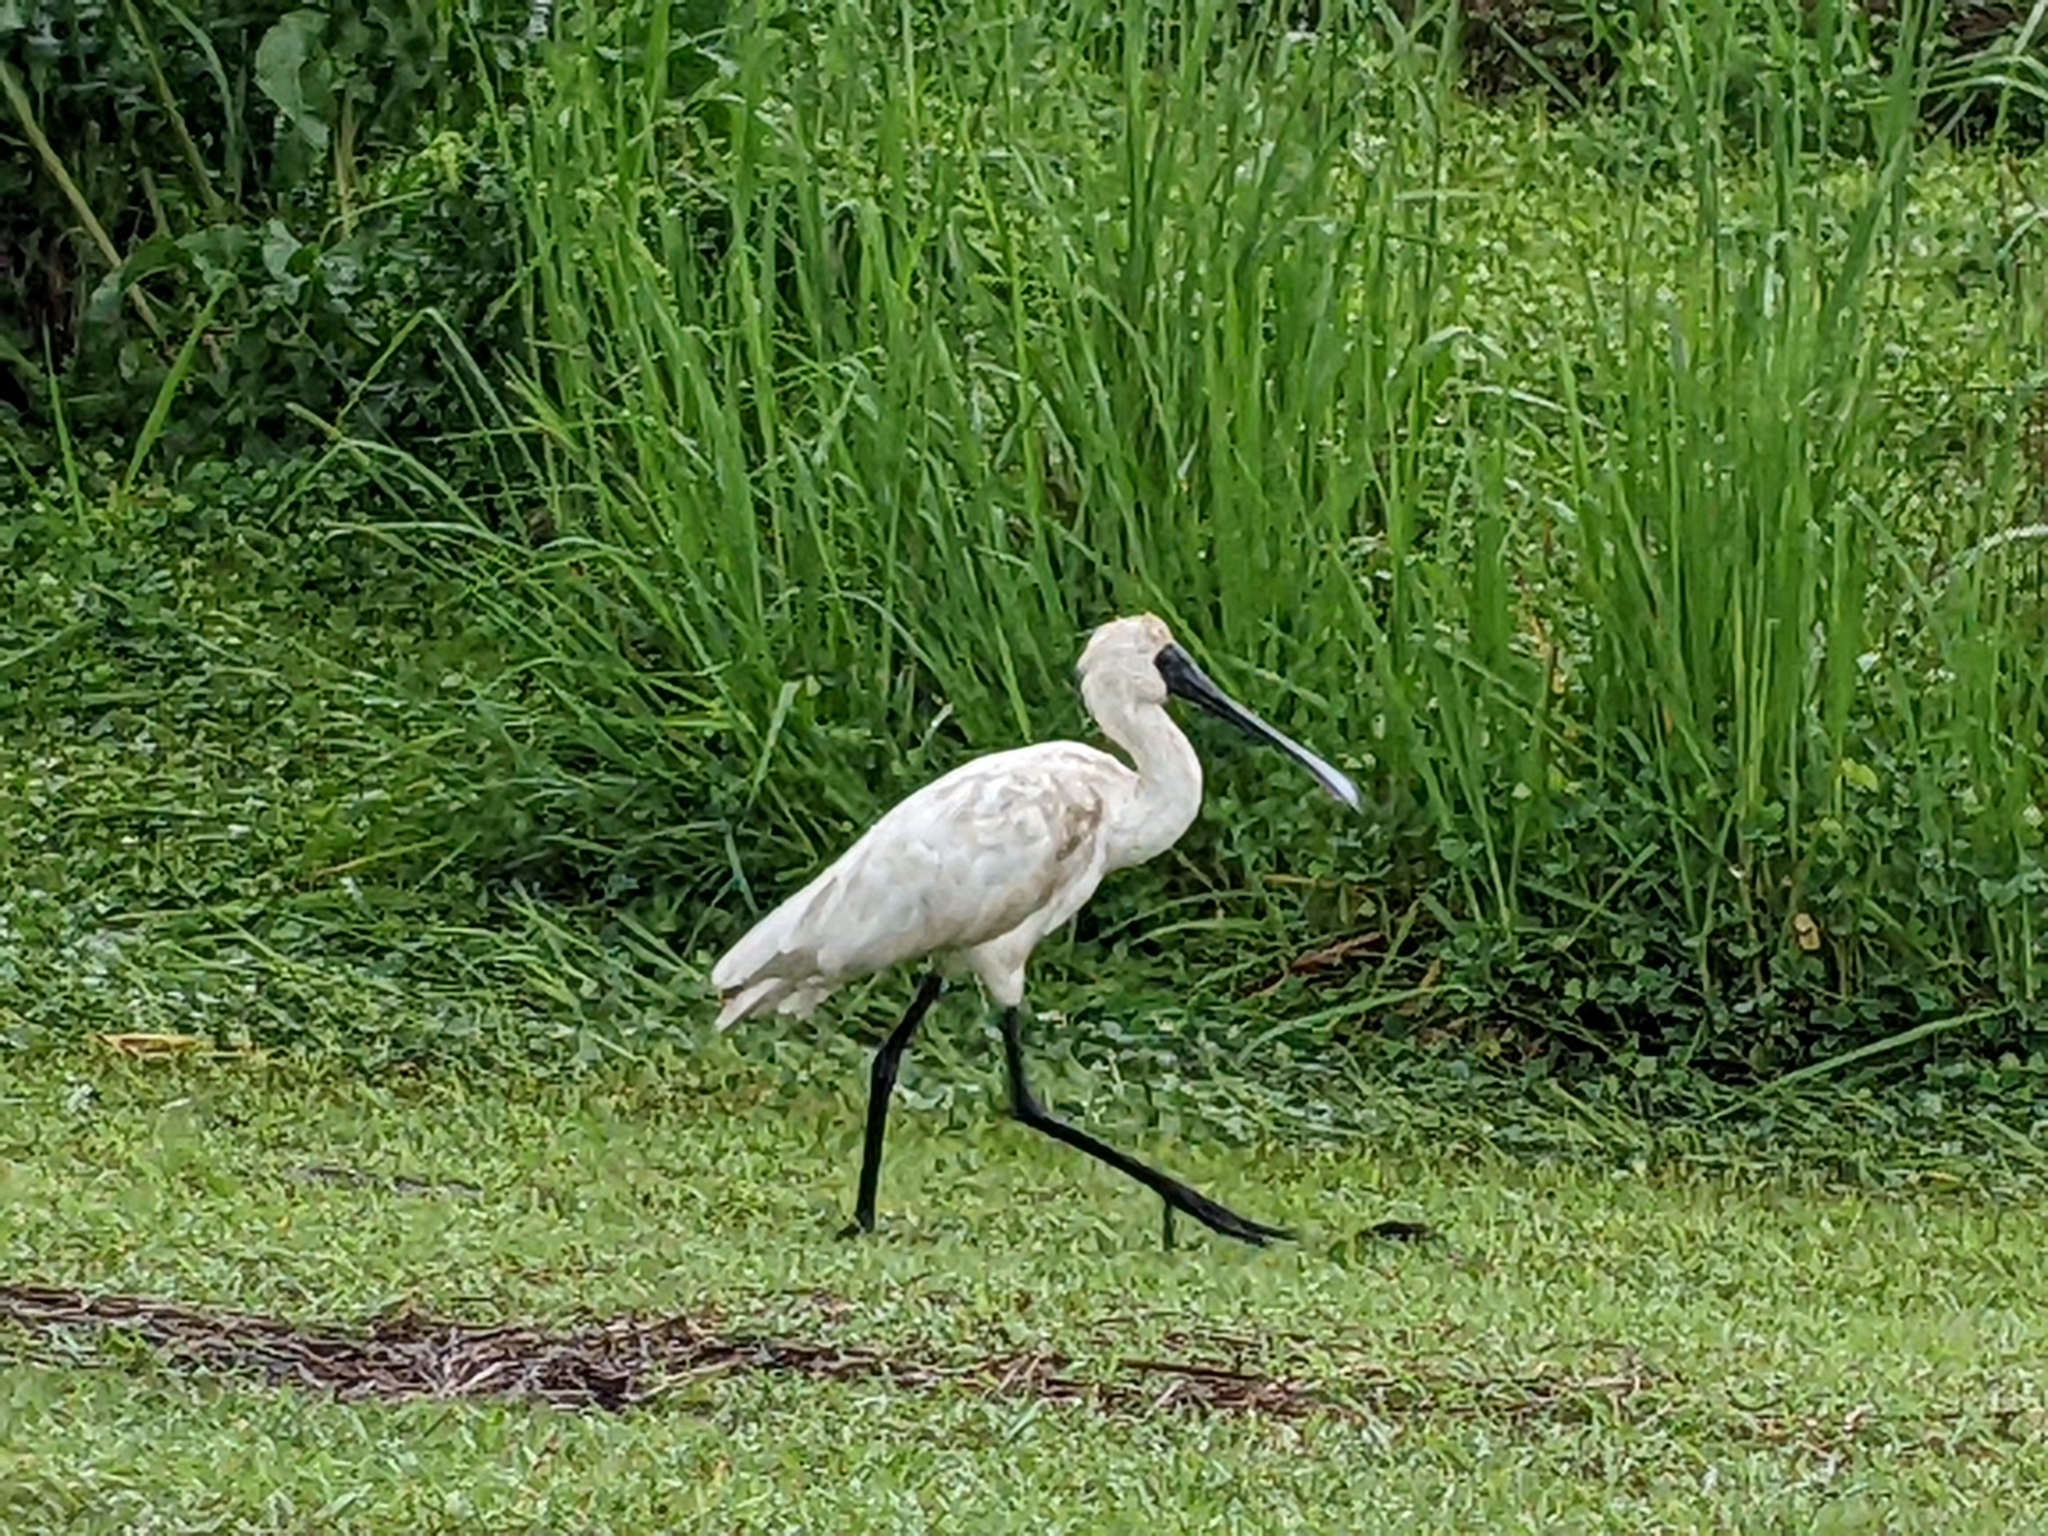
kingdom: Animalia
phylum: Chordata
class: Aves
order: Pelecaniformes
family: Threskiornithidae
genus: Platalea
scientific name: Platalea regia
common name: Royal spoonbill
